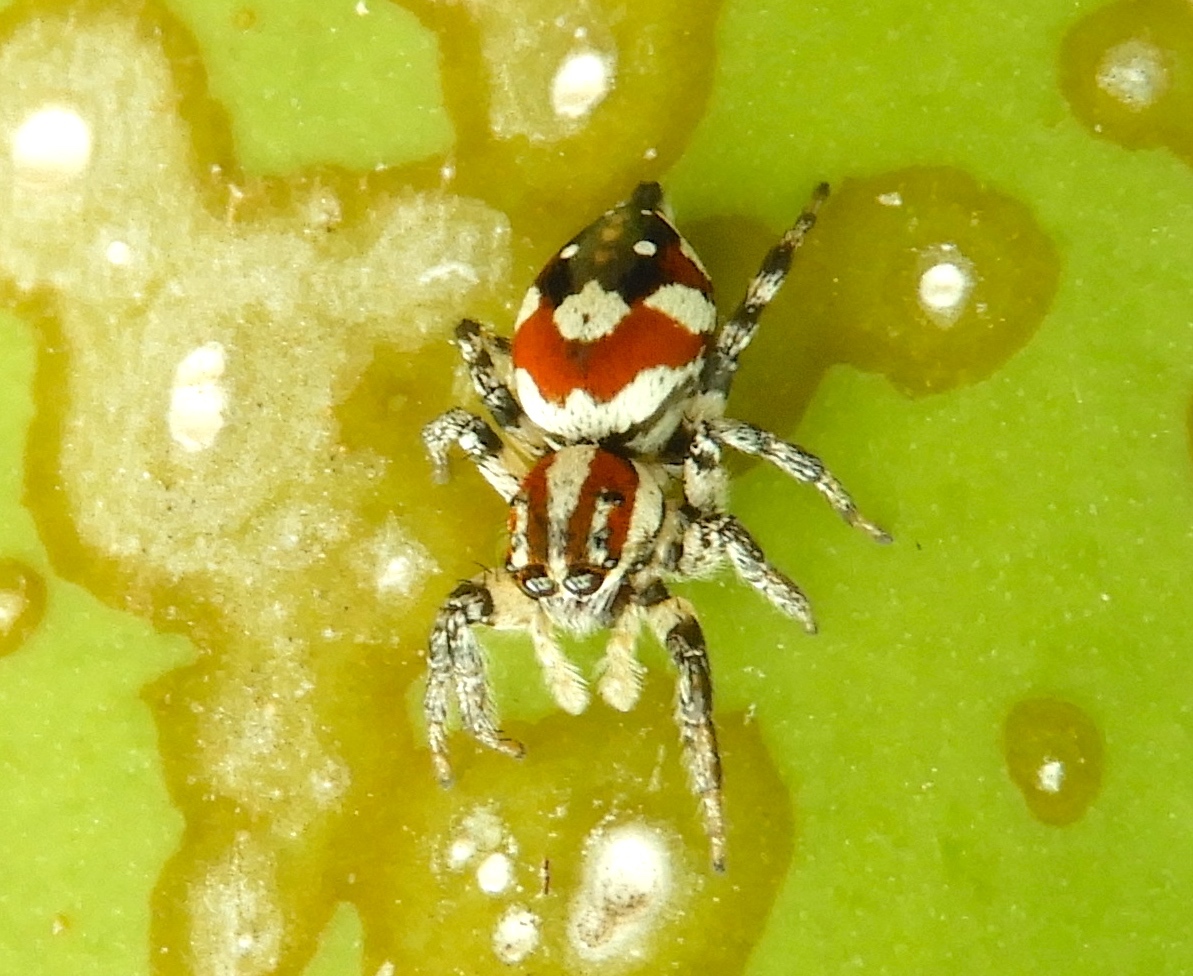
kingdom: Animalia
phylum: Arthropoda
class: Arachnida
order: Araneae
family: Salticidae
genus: Nycerella
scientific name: Nycerella delecta
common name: Jumping spiders
